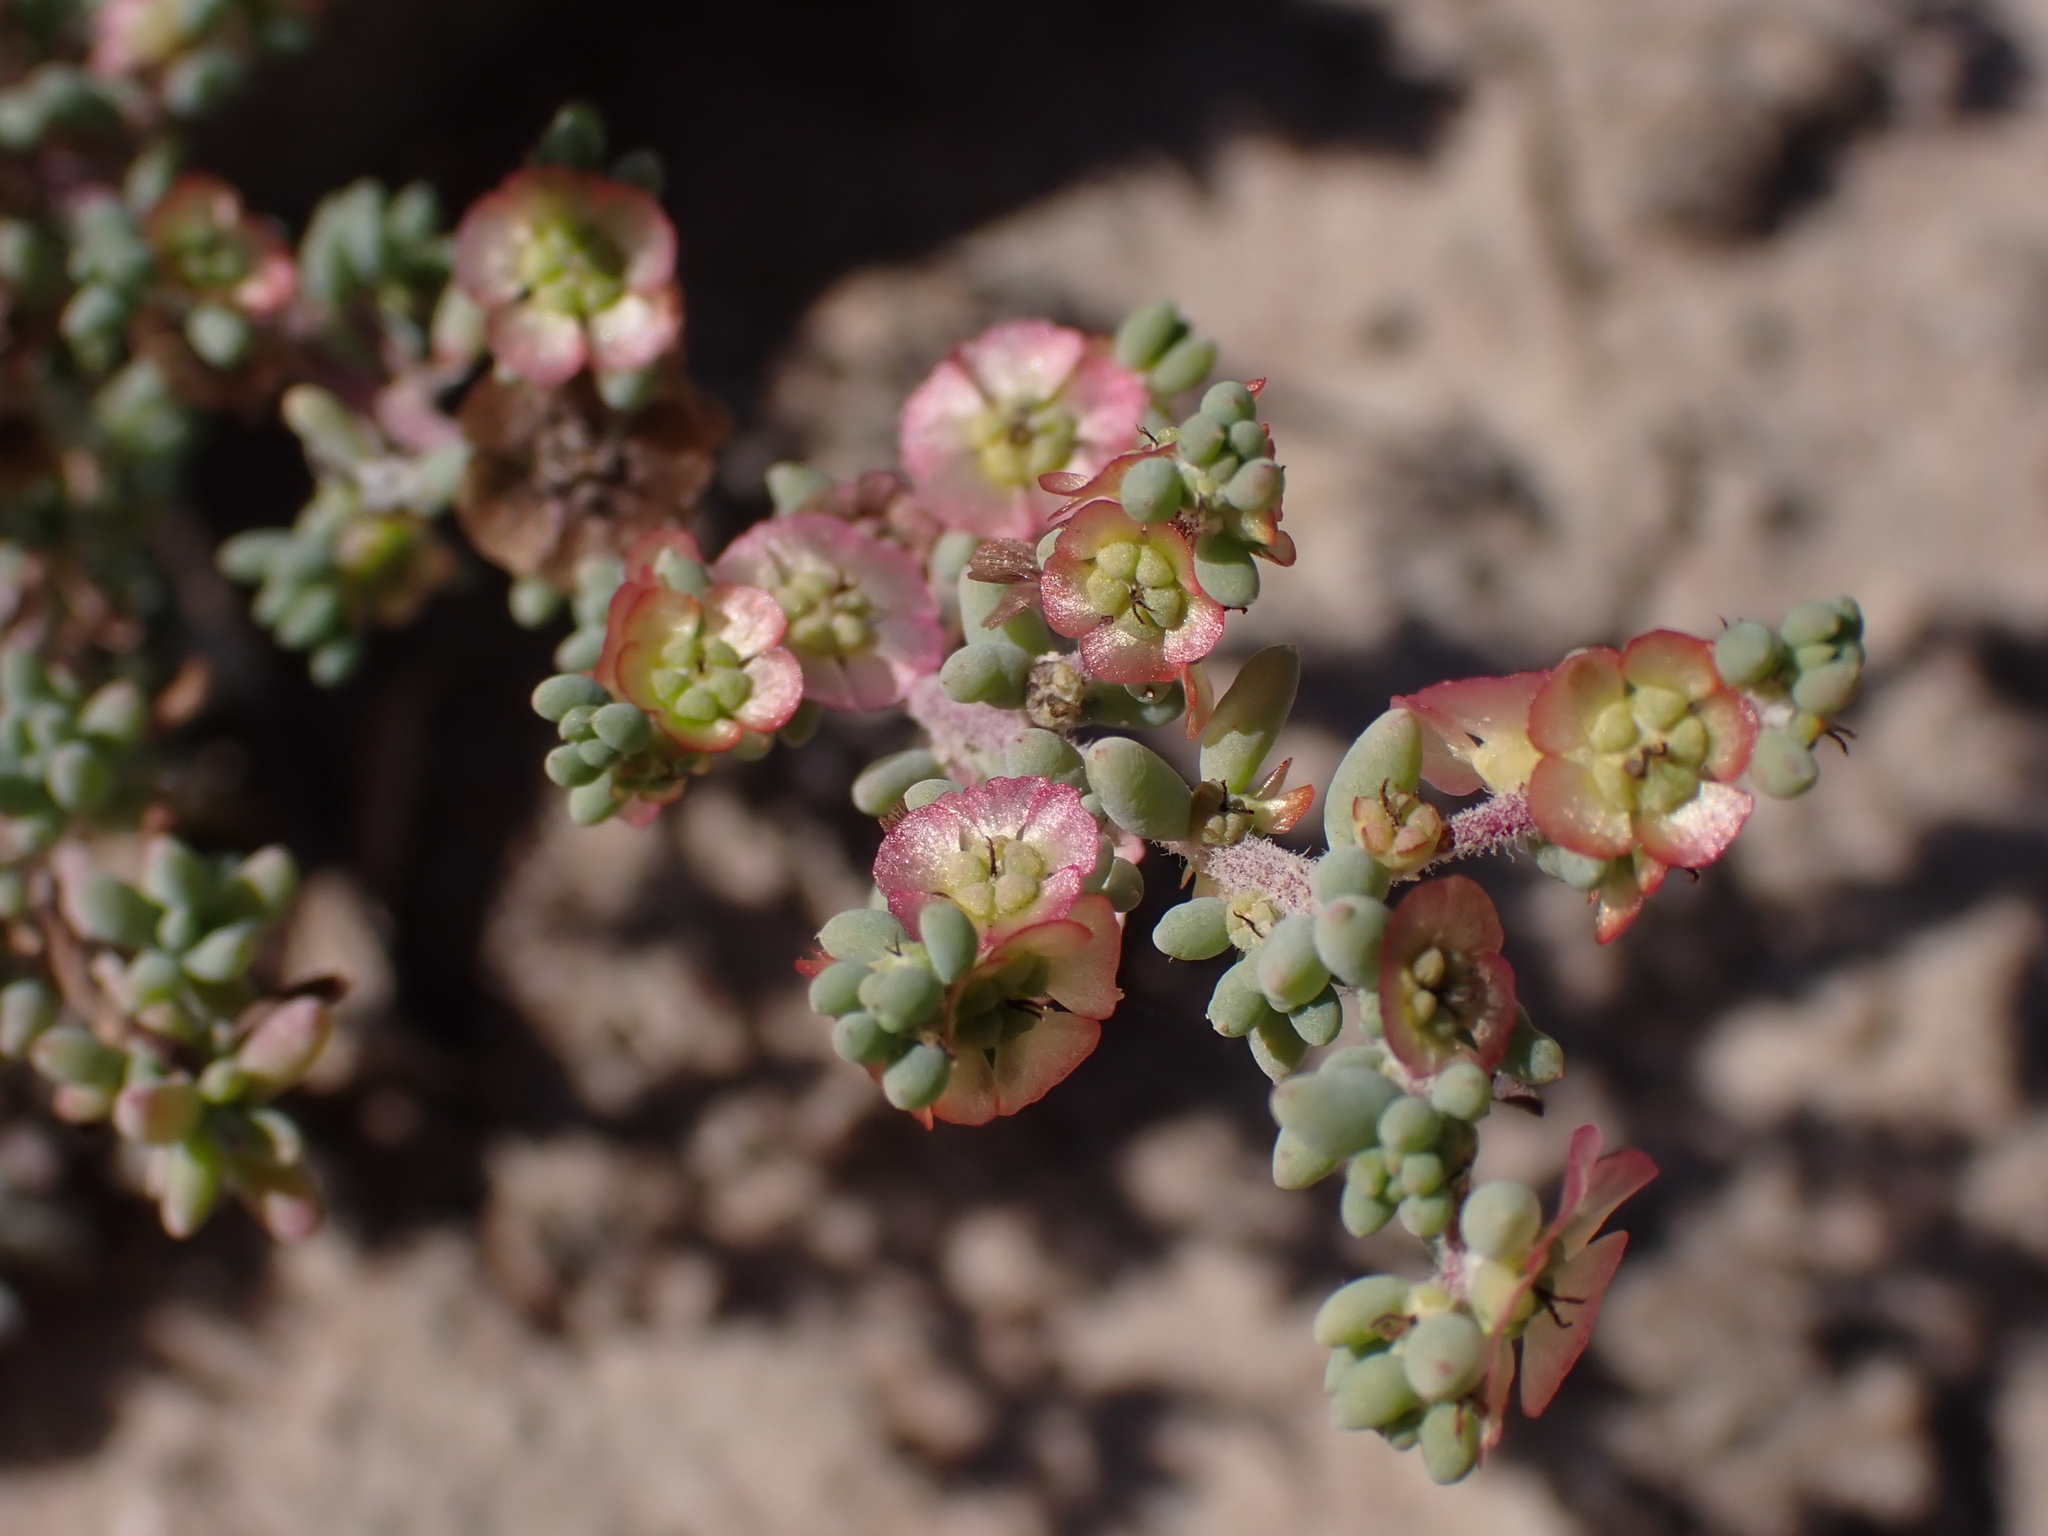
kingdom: Plantae
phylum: Tracheophyta
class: Magnoliopsida
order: Caryophyllales
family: Amaranthaceae
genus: Maireana
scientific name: Maireana brevifolia
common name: Eastern cottonbush
